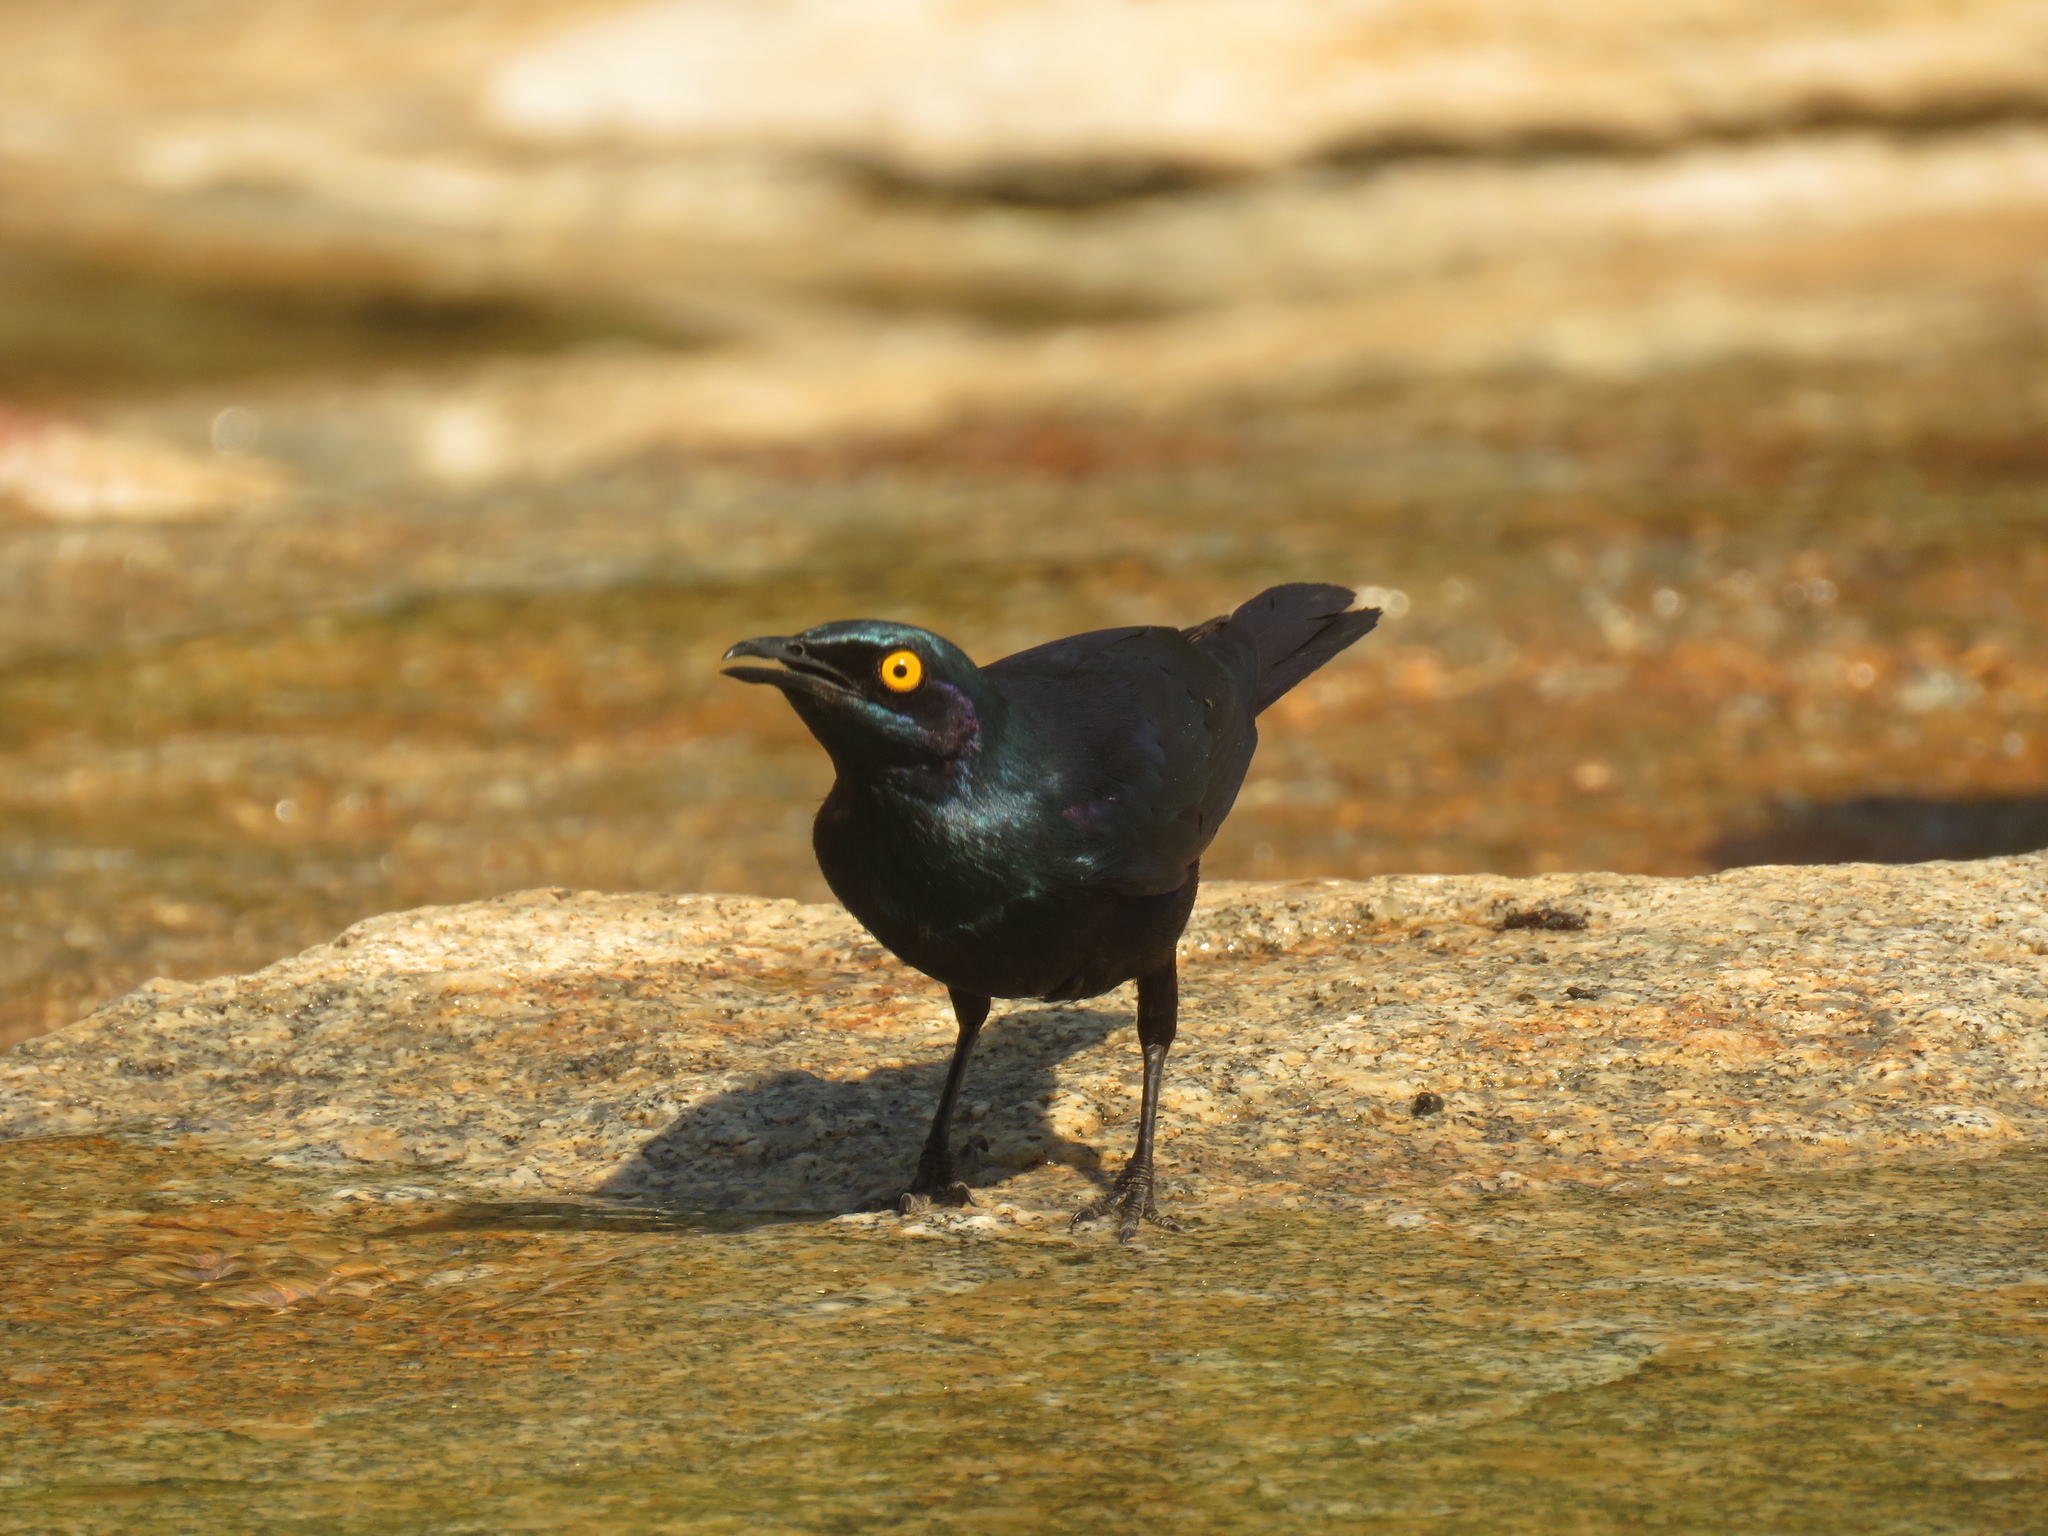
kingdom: Animalia
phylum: Chordata
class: Aves
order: Passeriformes
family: Sturnidae
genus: Lamprotornis
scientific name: Lamprotornis nitens
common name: Cape starling
